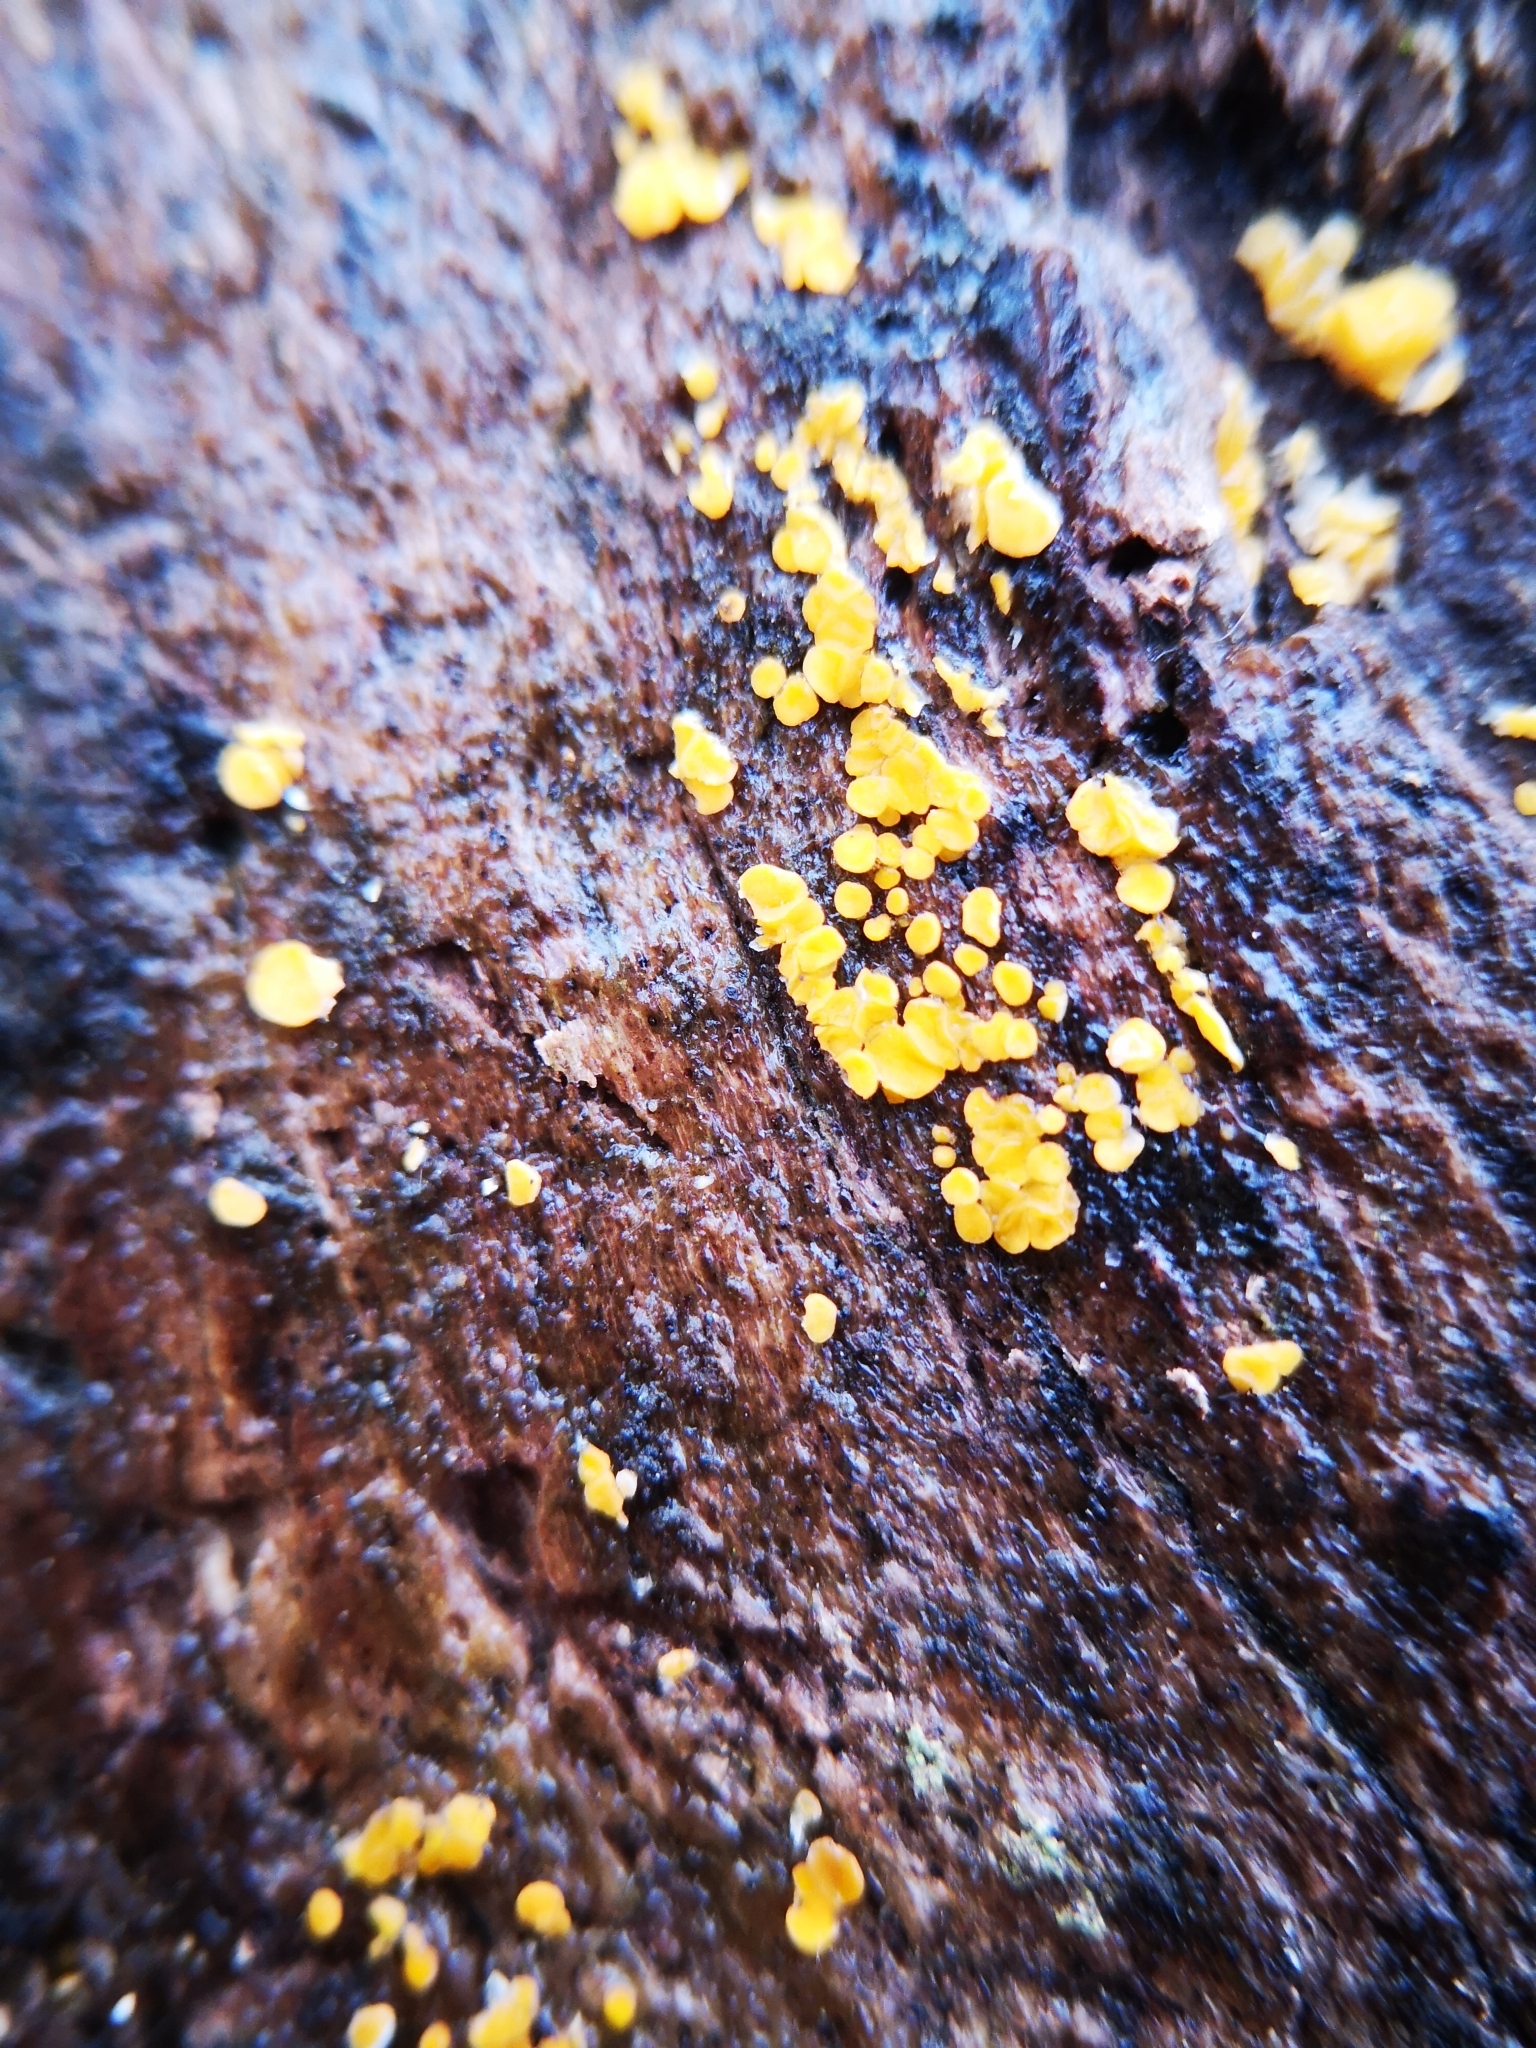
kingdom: Fungi
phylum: Ascomycota
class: Leotiomycetes
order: Helotiales
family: Pezizellaceae
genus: Calycina
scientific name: Calycina citrina
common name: Yellow fairy cups
